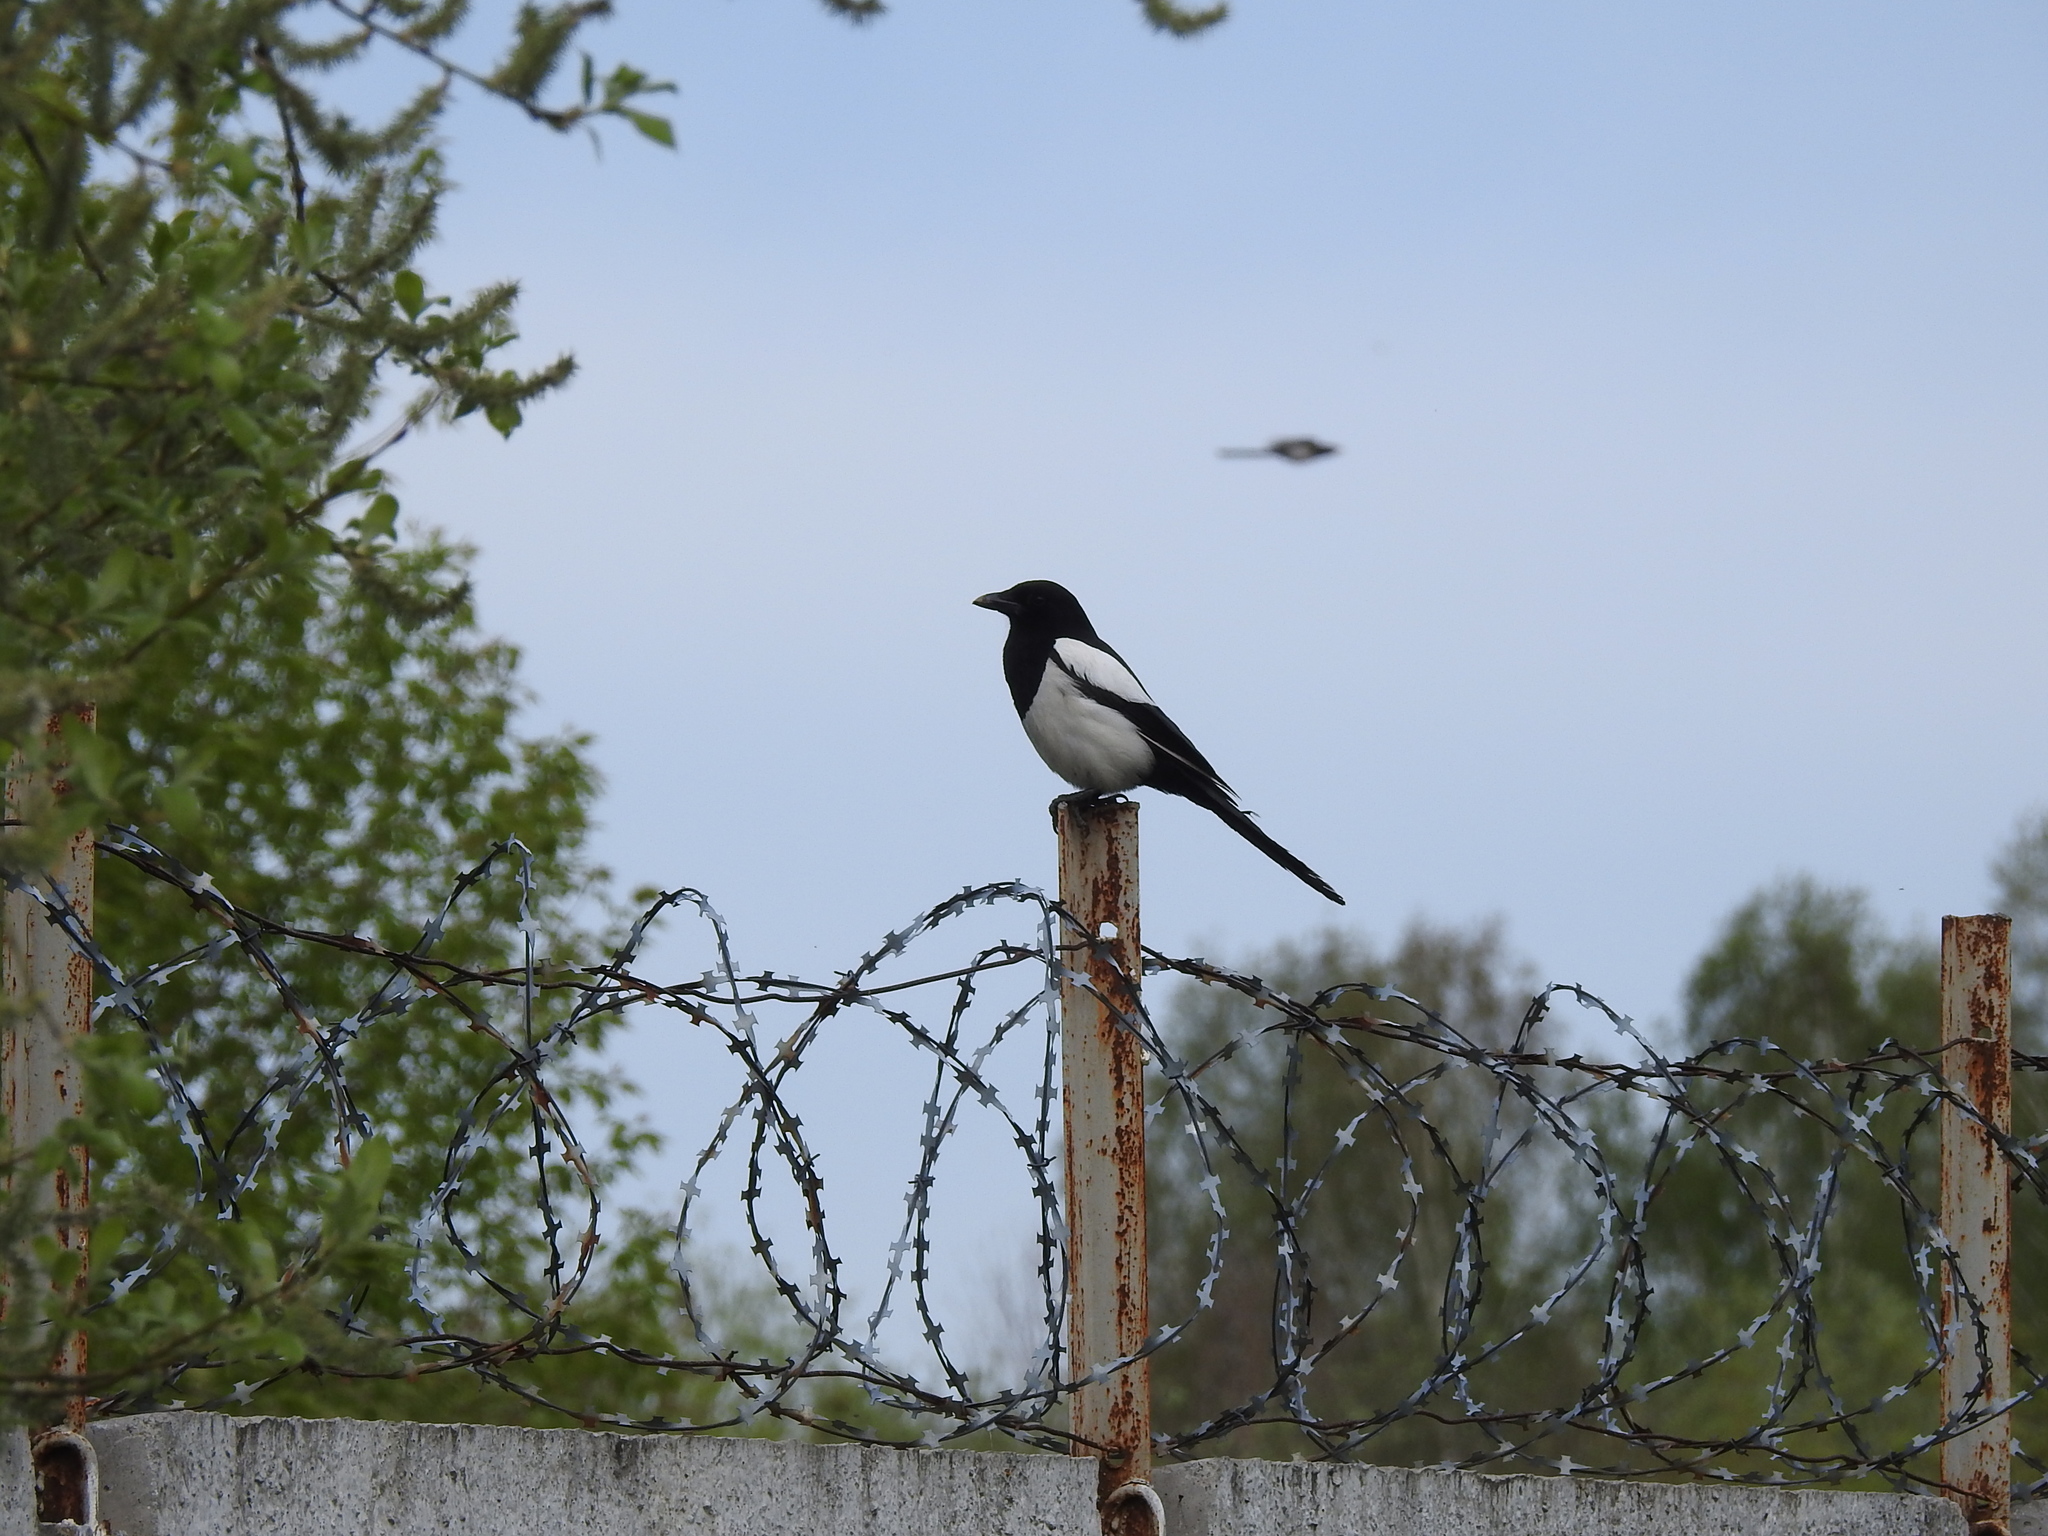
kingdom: Animalia
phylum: Chordata
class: Aves
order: Passeriformes
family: Corvidae
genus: Pica
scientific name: Pica pica
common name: Eurasian magpie
